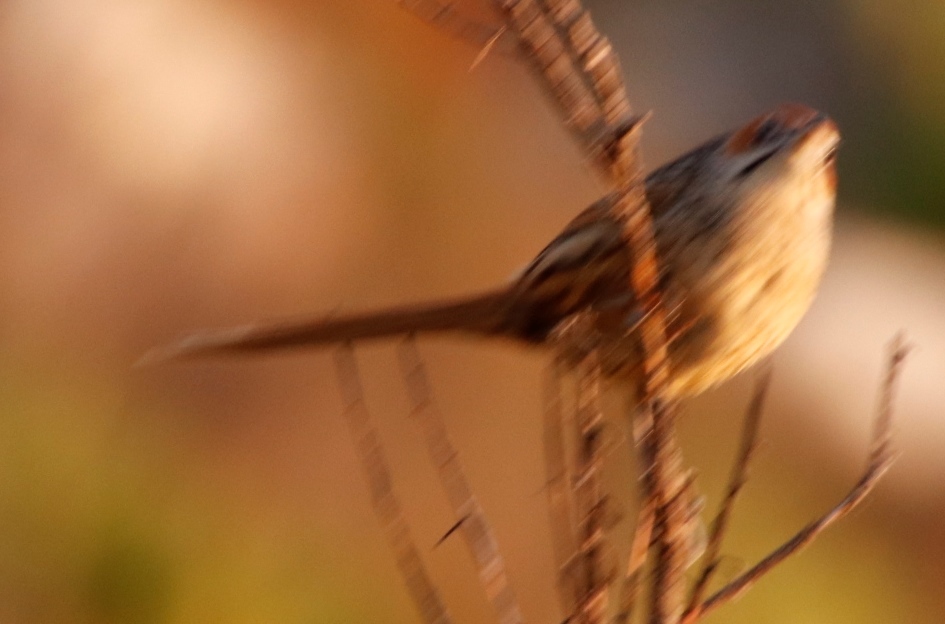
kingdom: Animalia
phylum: Chordata
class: Aves
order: Passeriformes
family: Macrosphenidae
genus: Sphenoeacus
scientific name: Sphenoeacus afer
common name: Cape grassbird
